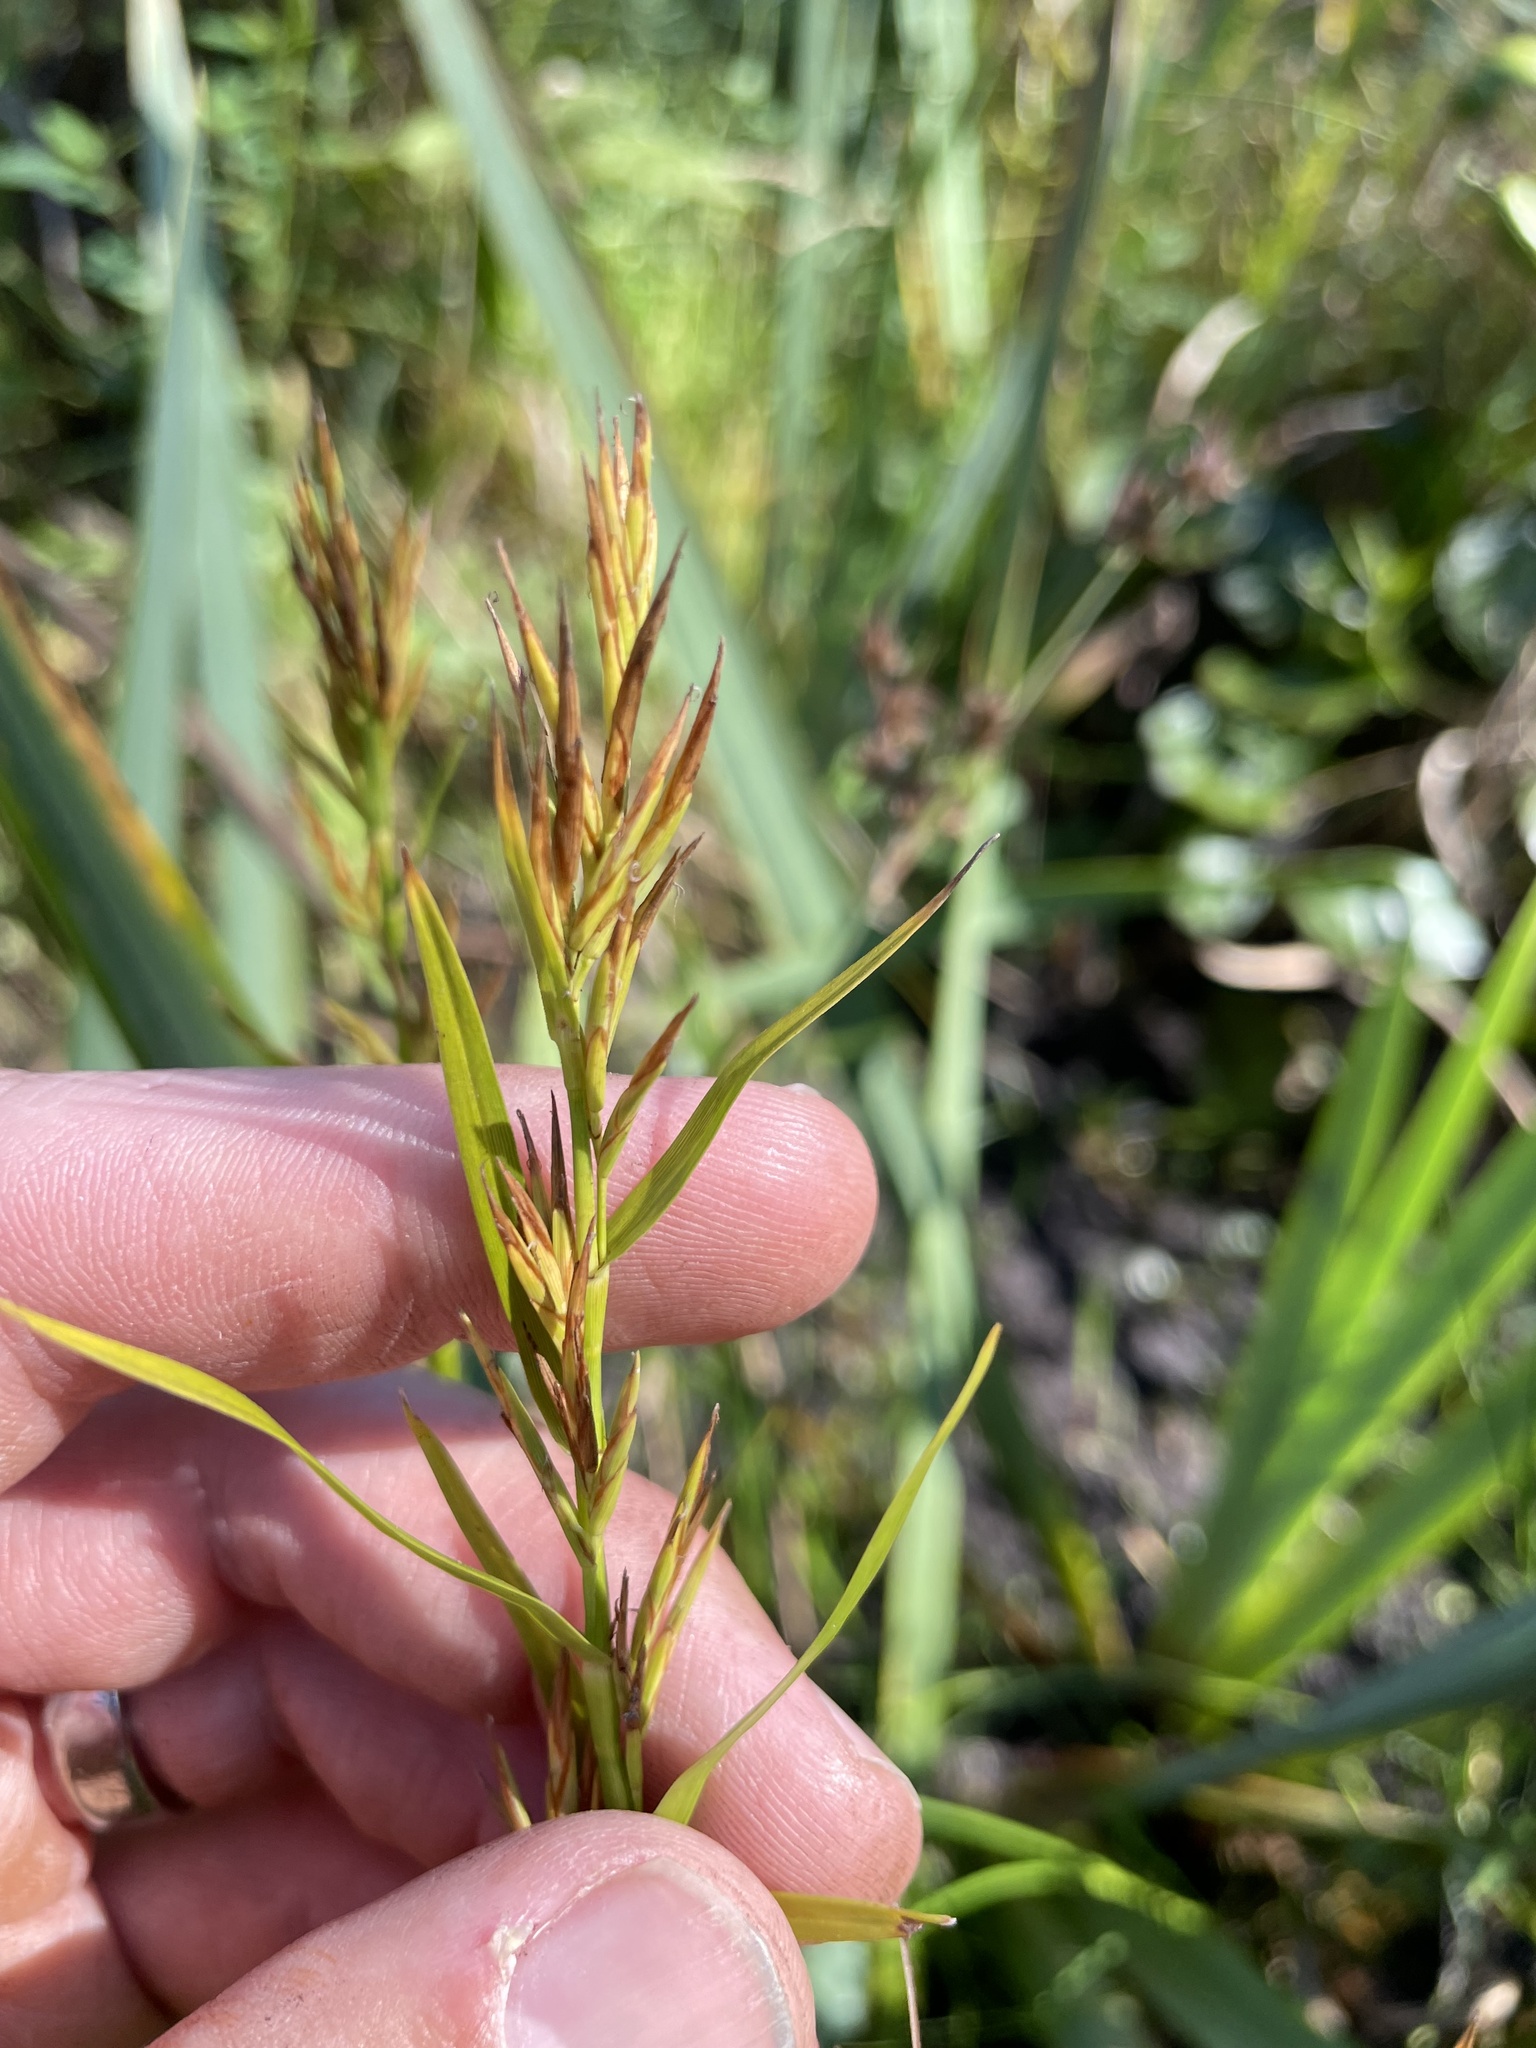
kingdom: Plantae
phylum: Tracheophyta
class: Liliopsida
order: Poales
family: Cyperaceae
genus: Dulichium
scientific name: Dulichium arundinaceum
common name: Three-way sedge
